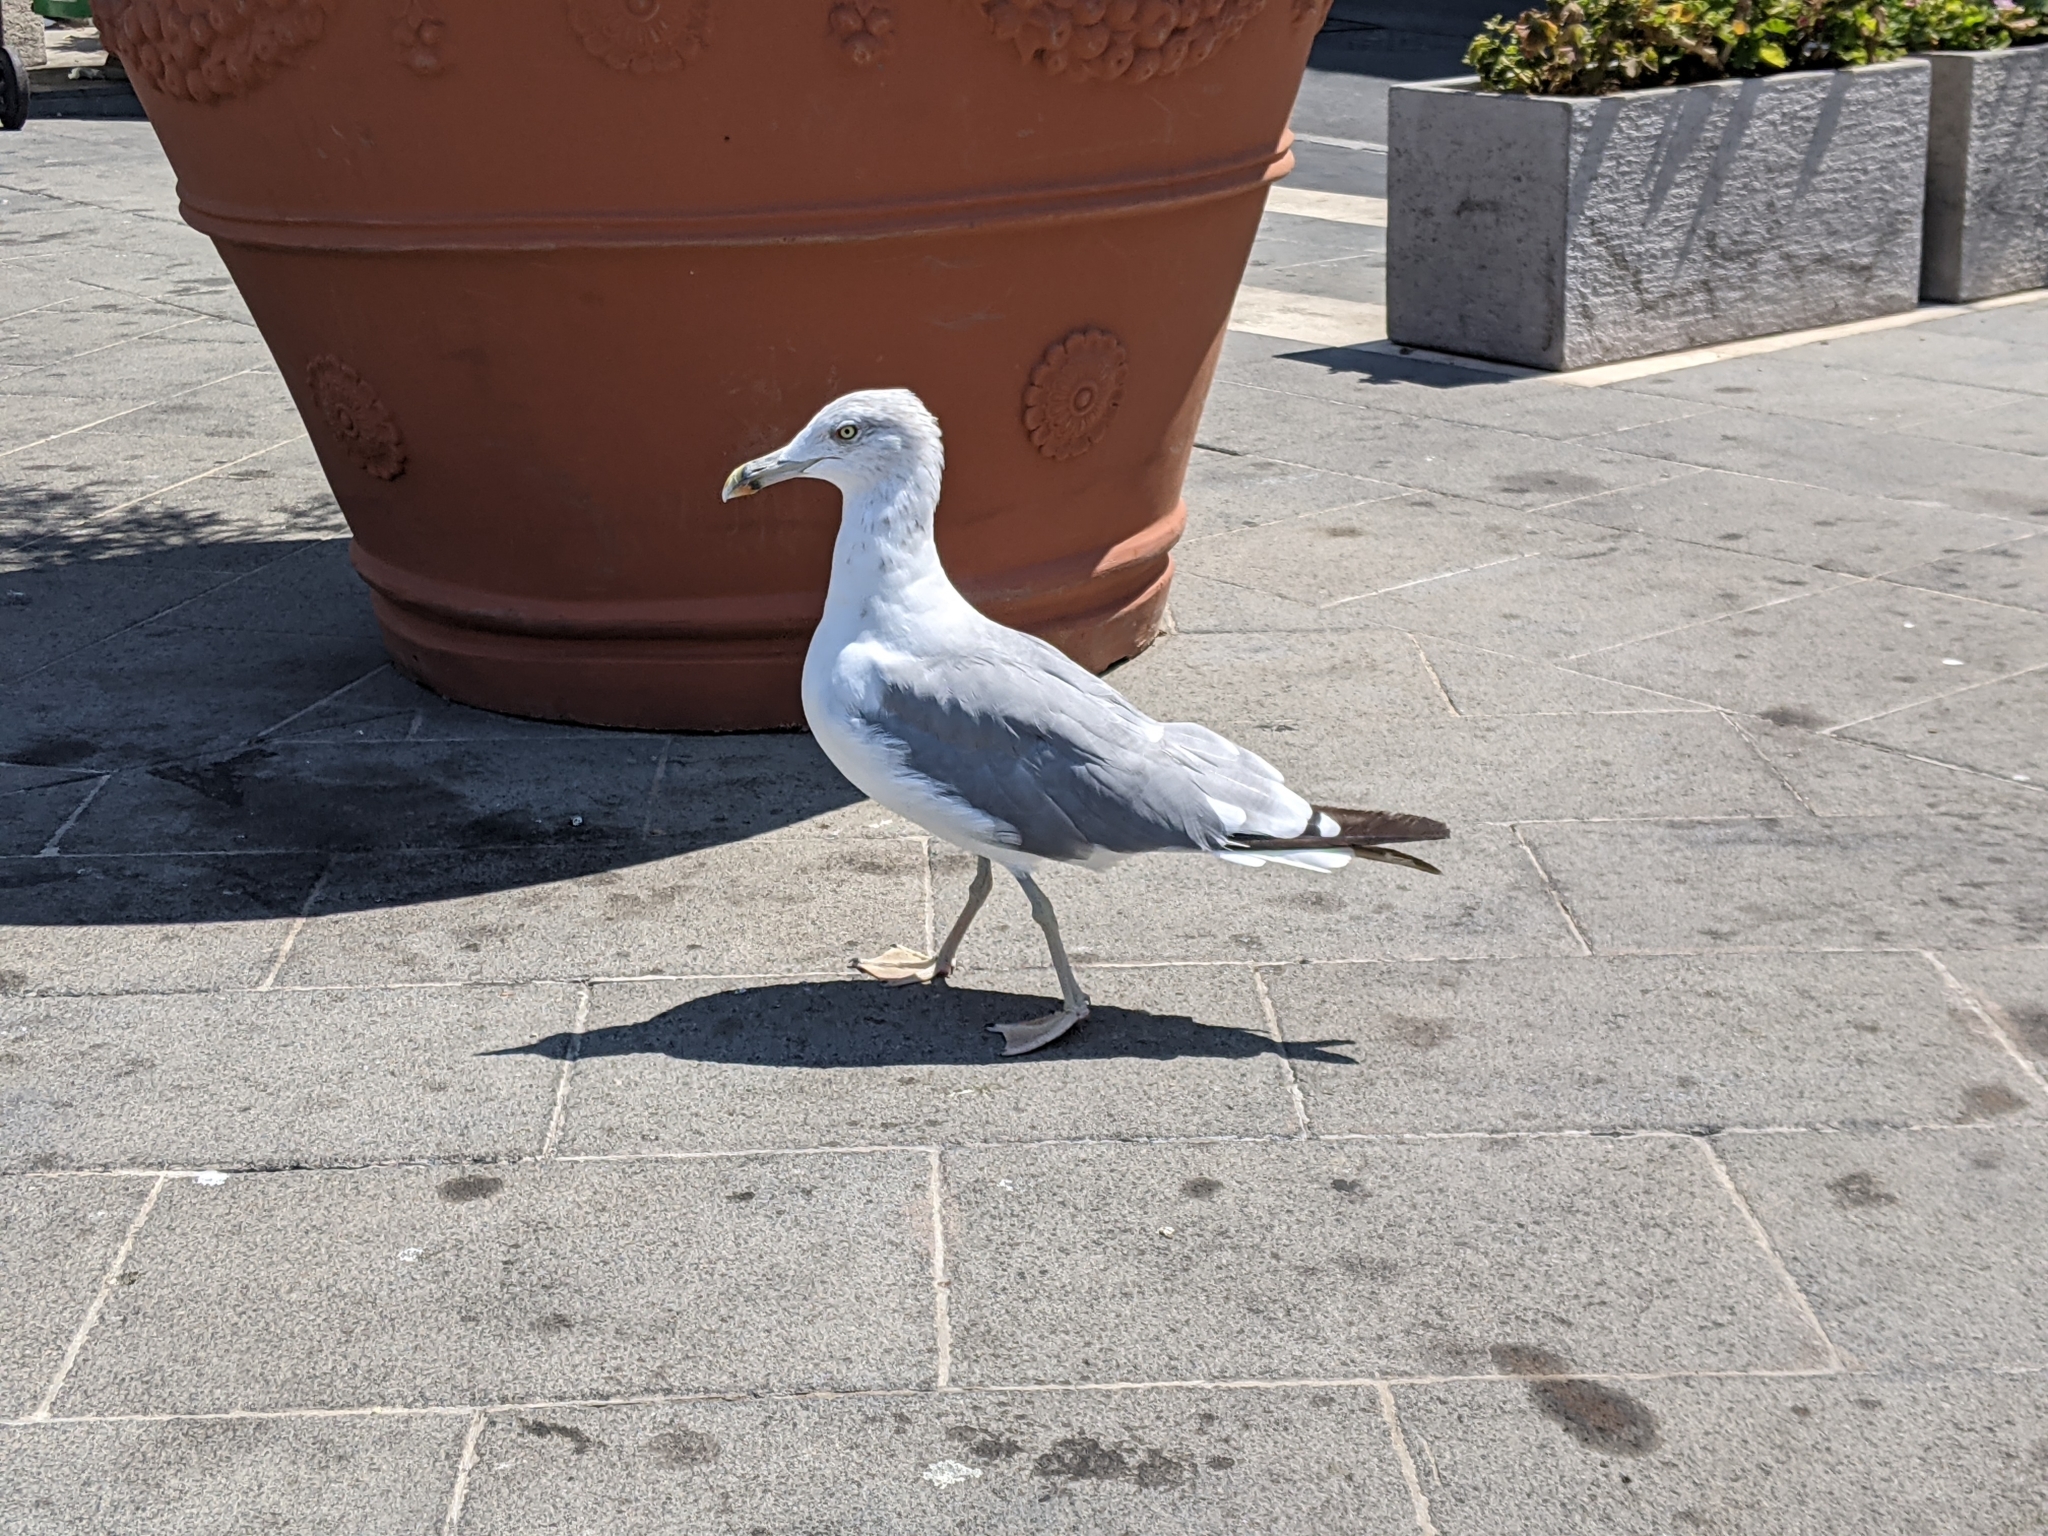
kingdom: Animalia
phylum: Chordata
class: Aves
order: Charadriiformes
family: Laridae
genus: Larus
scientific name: Larus michahellis
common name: Yellow-legged gull
